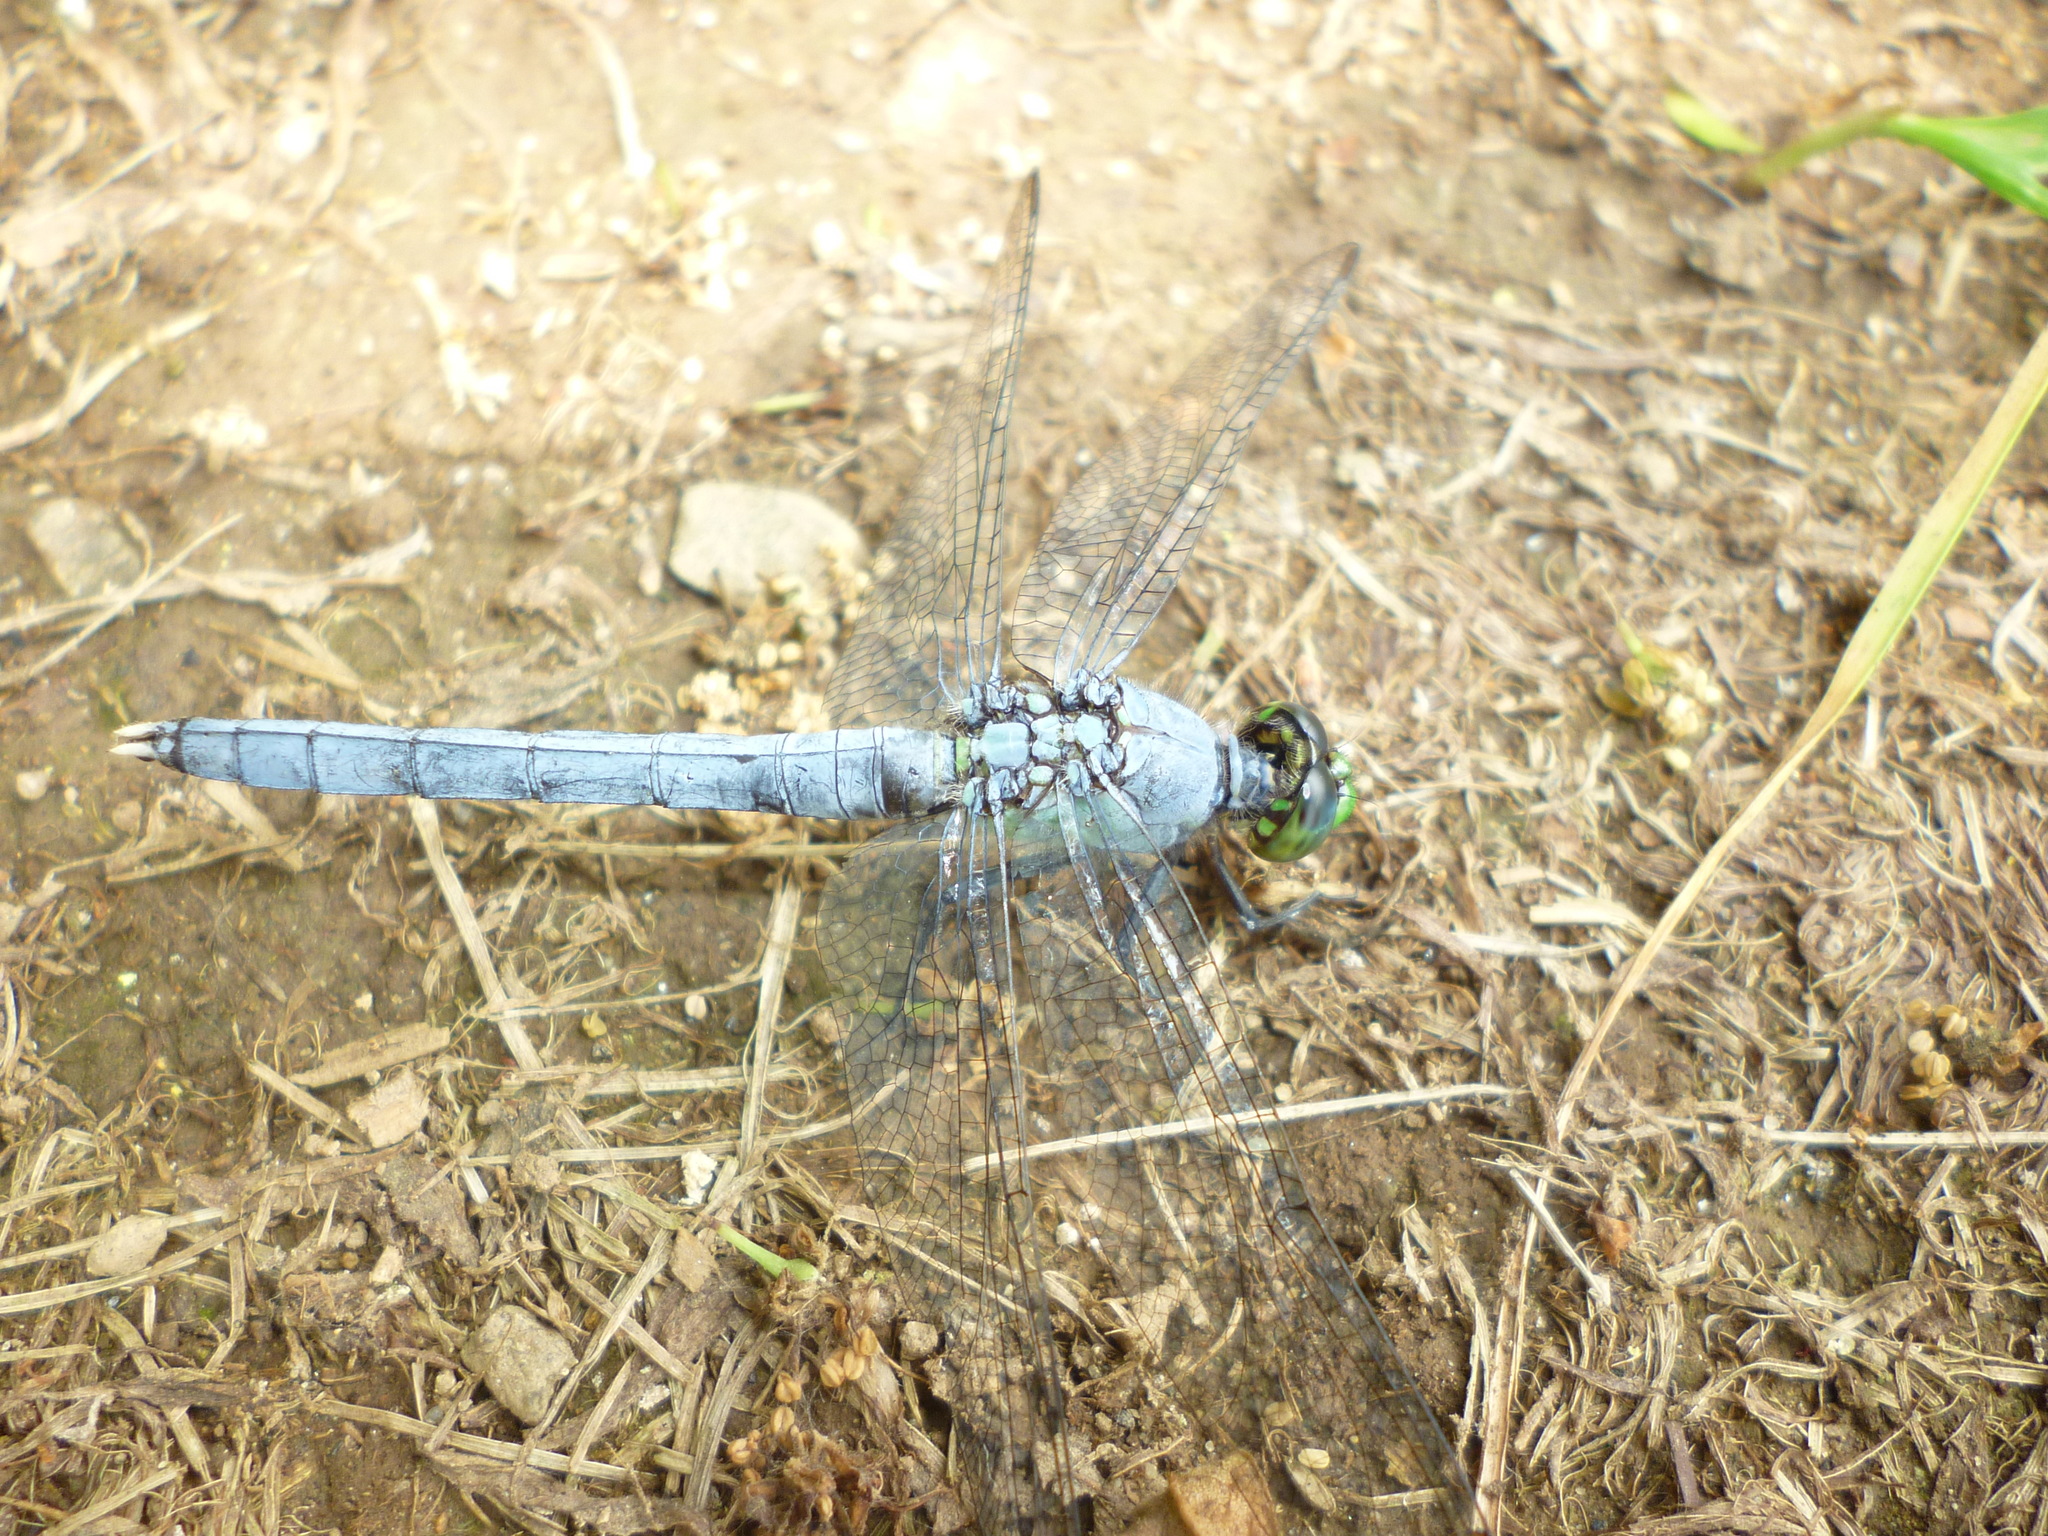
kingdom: Animalia
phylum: Arthropoda
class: Insecta
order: Odonata
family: Libellulidae
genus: Erythemis
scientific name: Erythemis simplicicollis
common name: Eastern pondhawk
